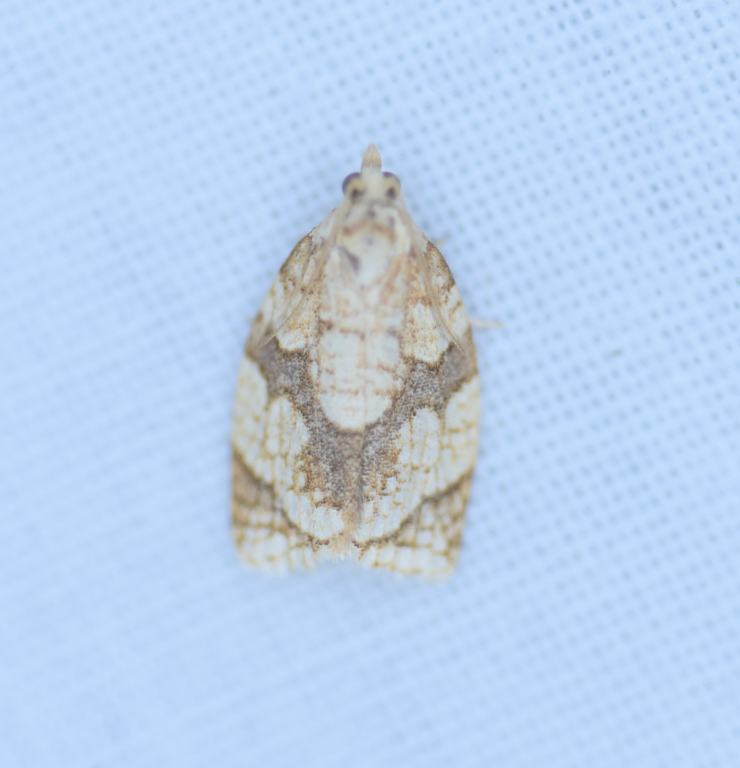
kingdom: Animalia
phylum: Arthropoda
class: Insecta
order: Lepidoptera
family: Tortricidae
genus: Adoxophyes
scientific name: Adoxophyes negundana
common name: Shimmering gold adoxophyes moth
